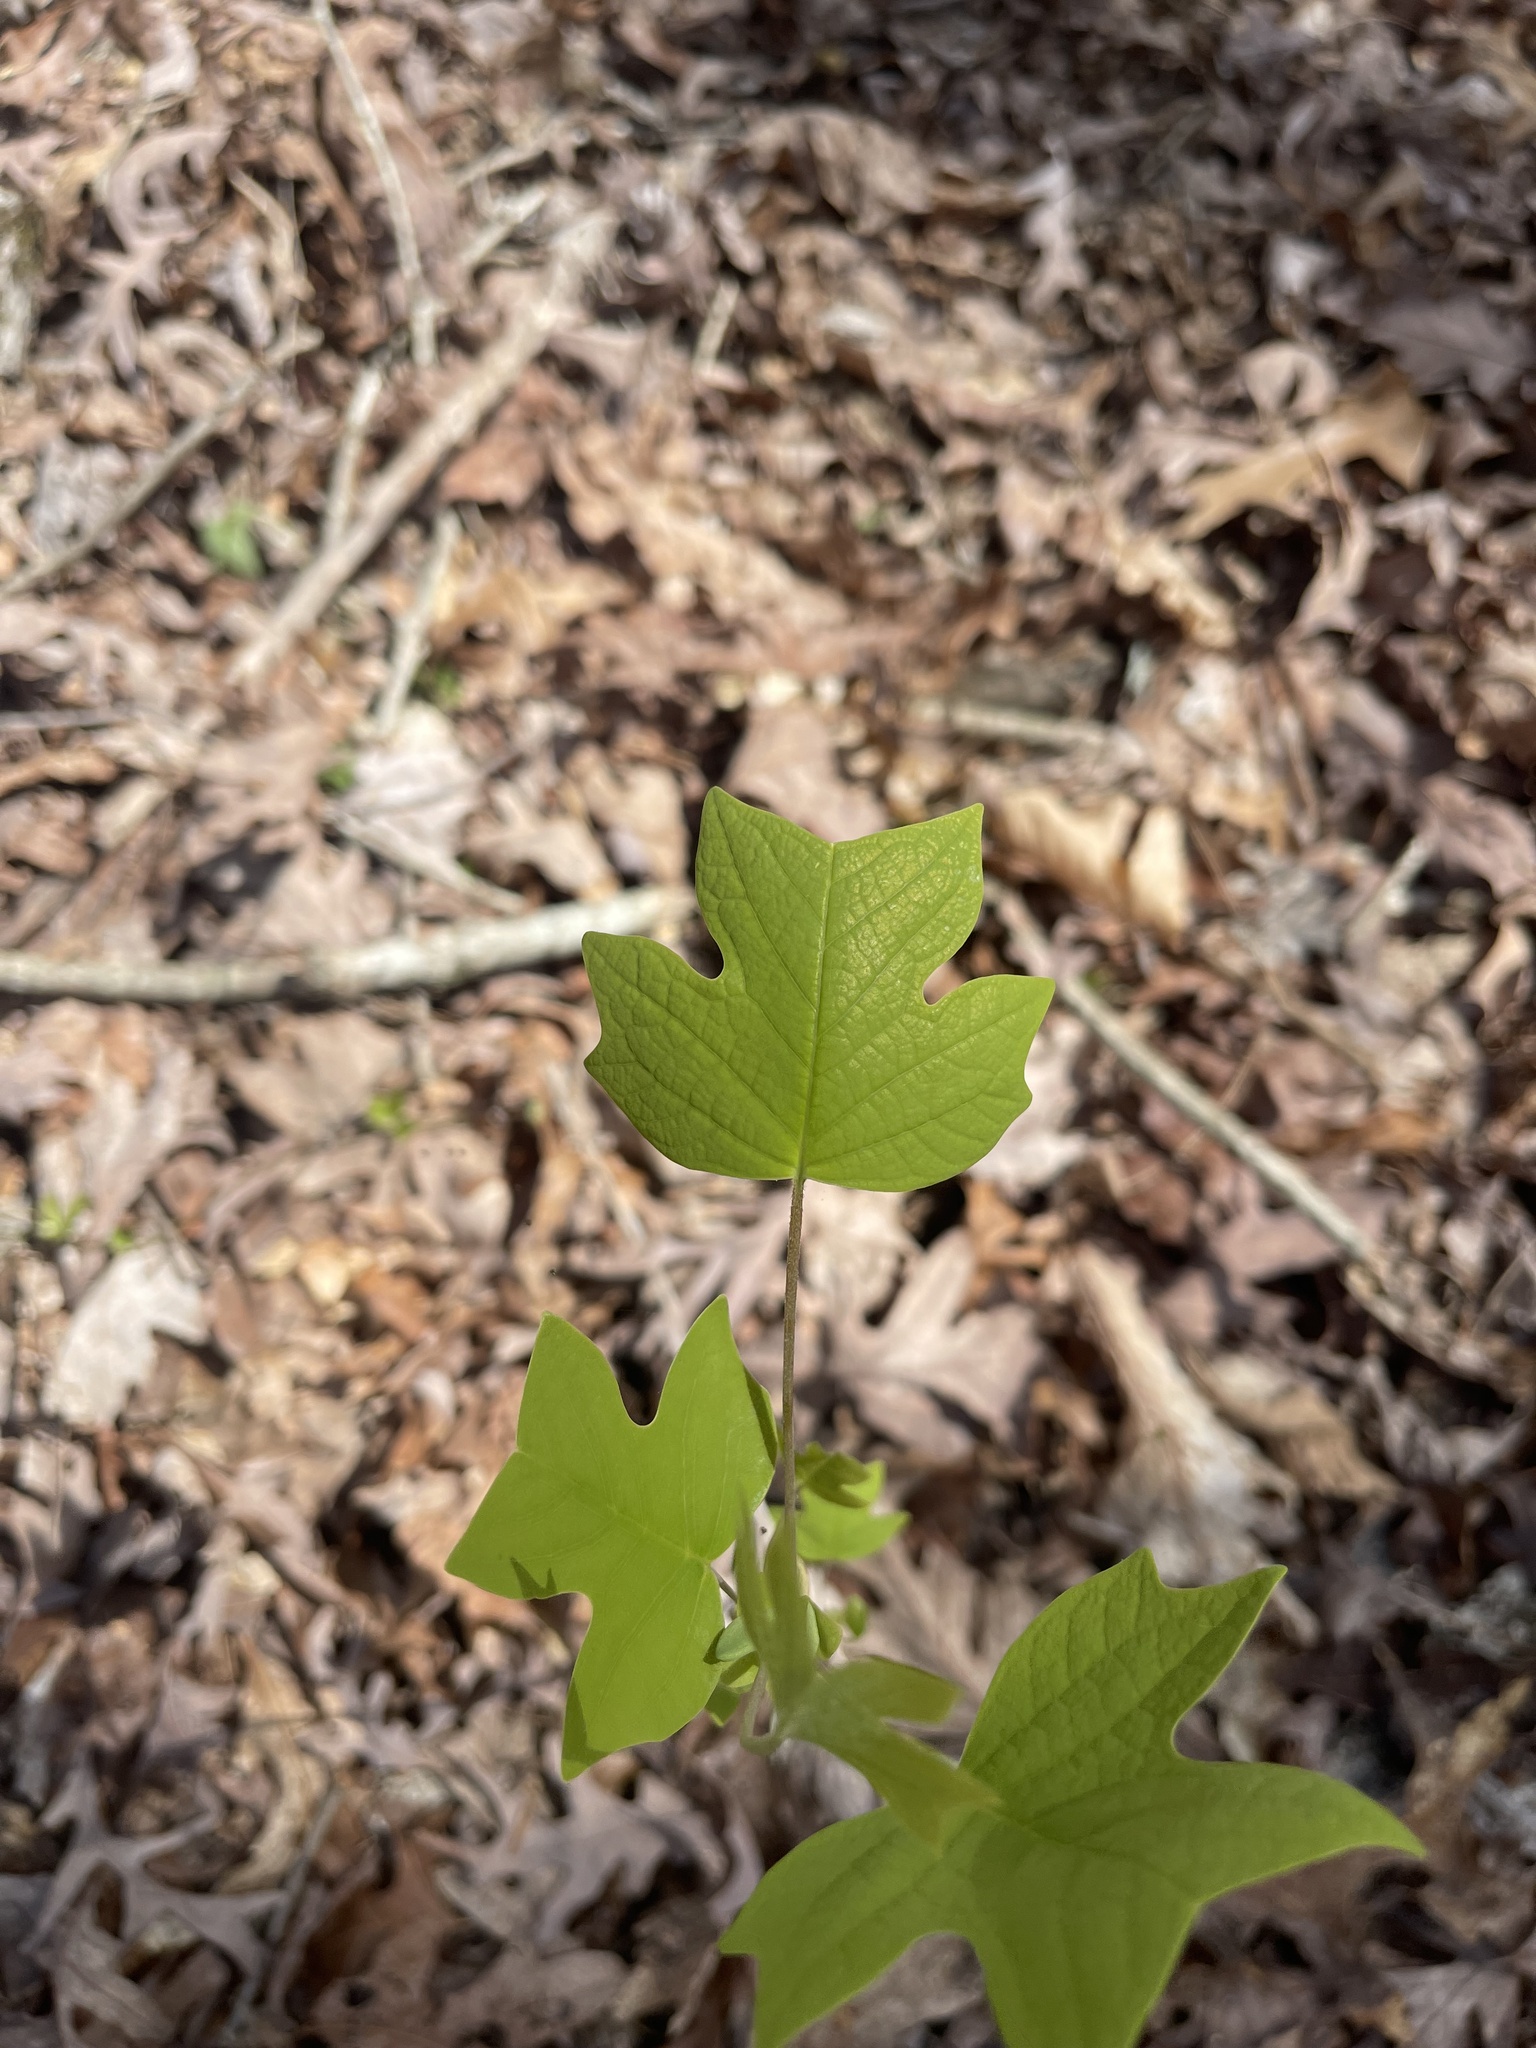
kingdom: Plantae
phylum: Tracheophyta
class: Magnoliopsida
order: Magnoliales
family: Magnoliaceae
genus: Liriodendron
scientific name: Liriodendron tulipifera
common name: Tulip tree
